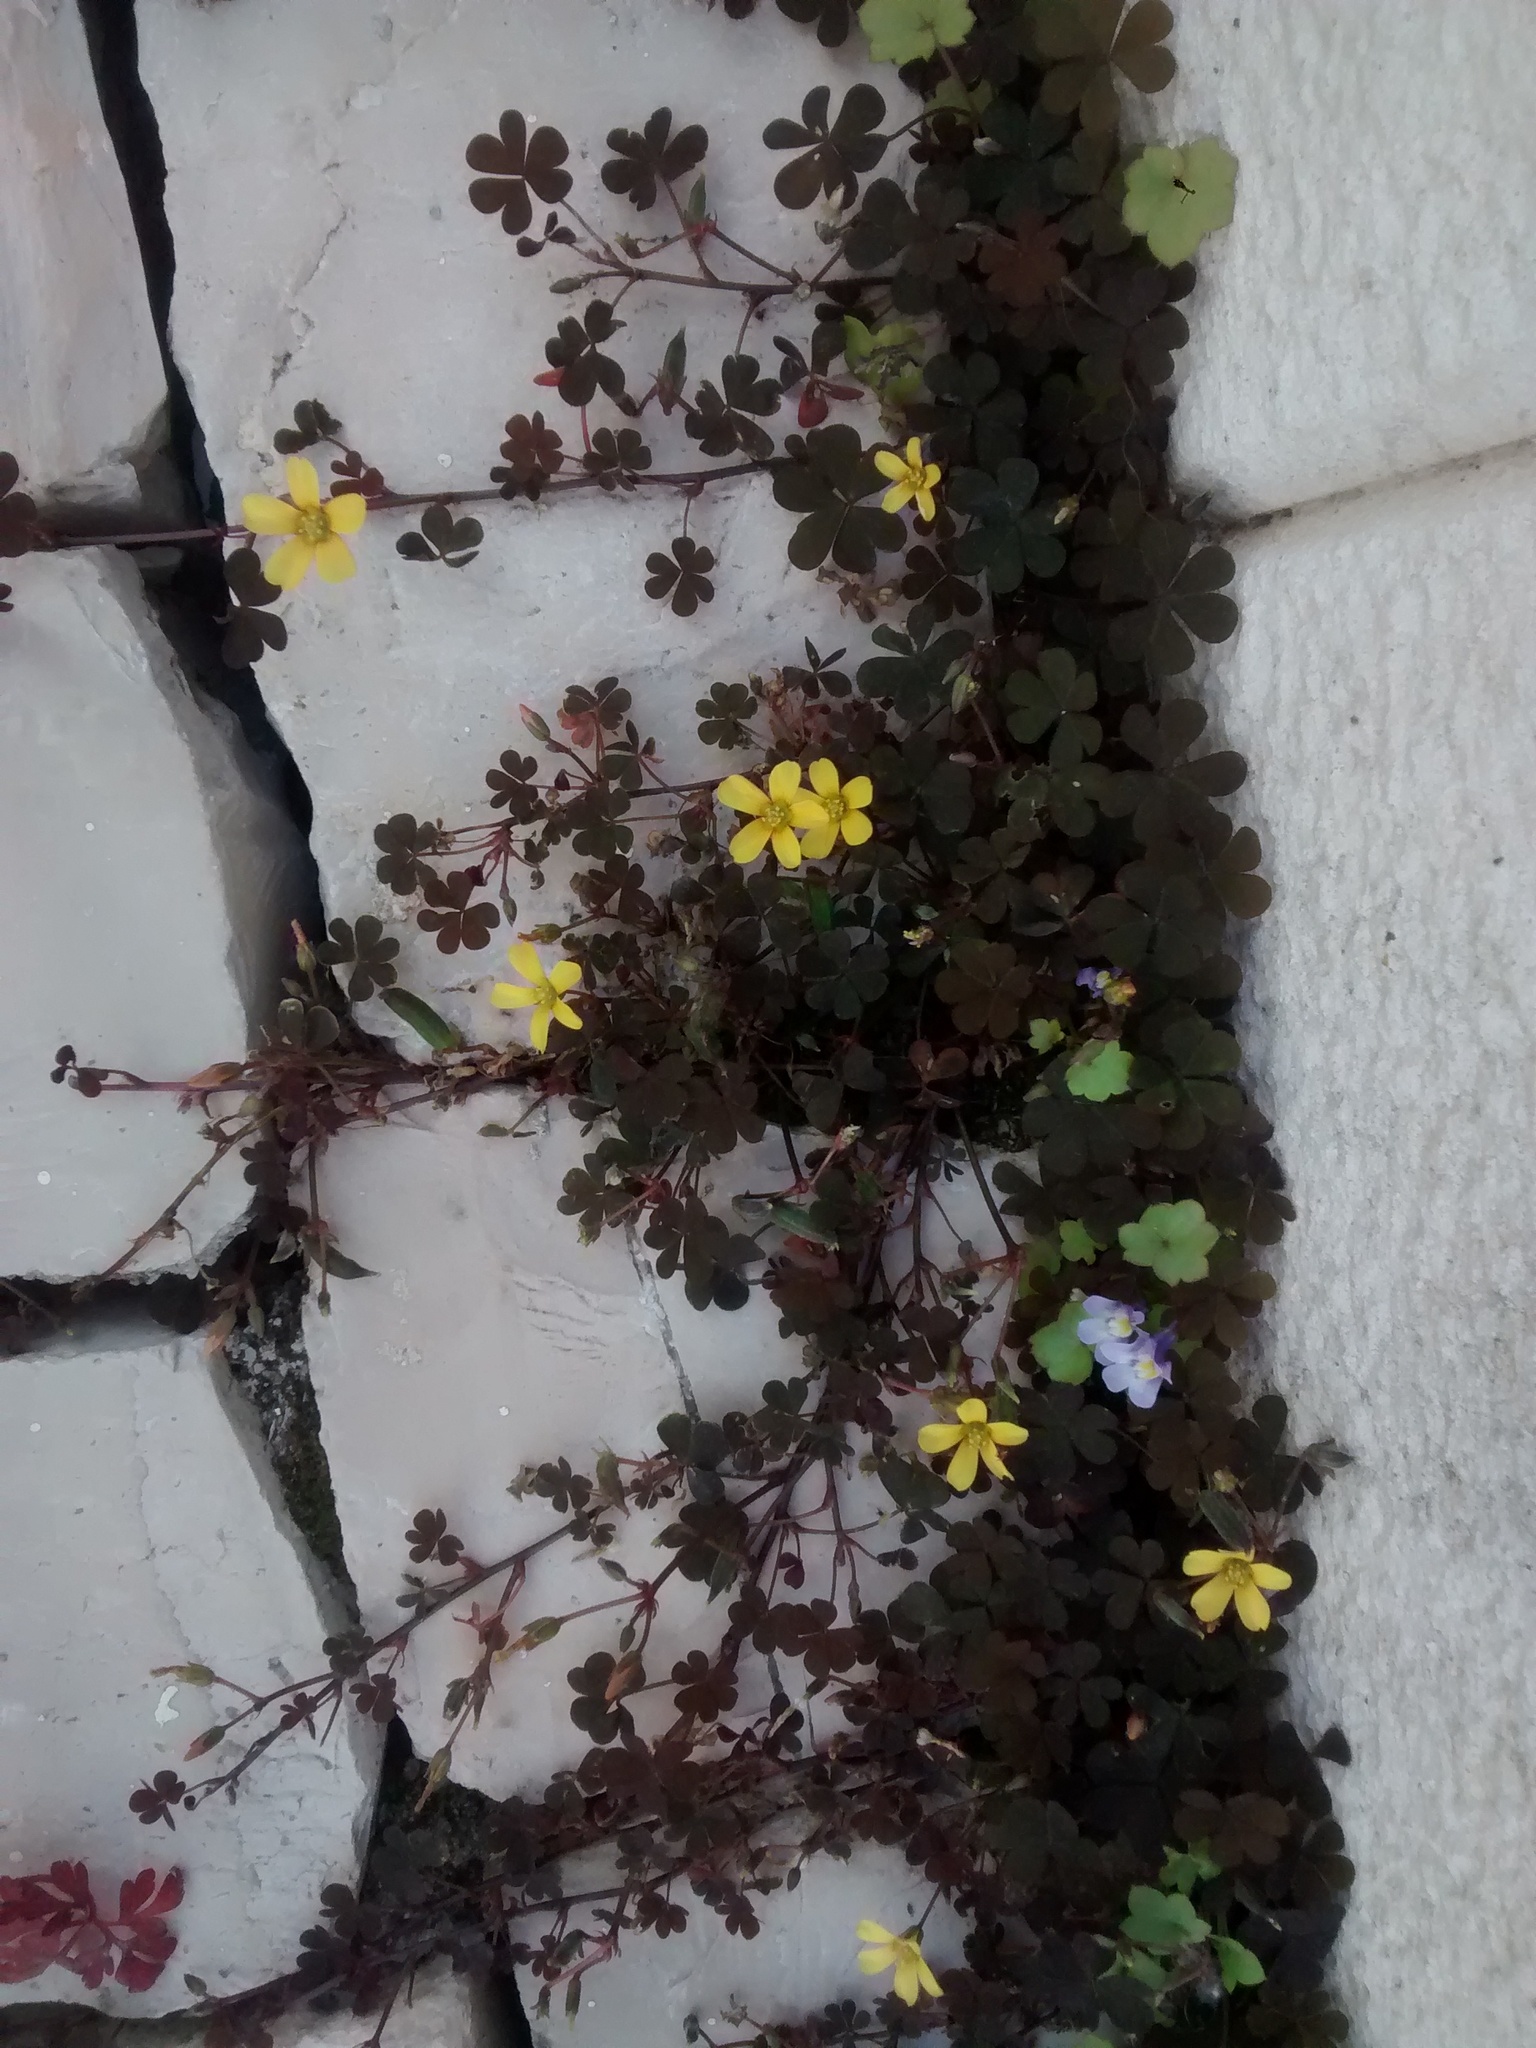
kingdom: Plantae
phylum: Tracheophyta
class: Magnoliopsida
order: Oxalidales
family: Oxalidaceae
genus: Oxalis
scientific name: Oxalis corniculata
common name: Procumbent yellow-sorrel
